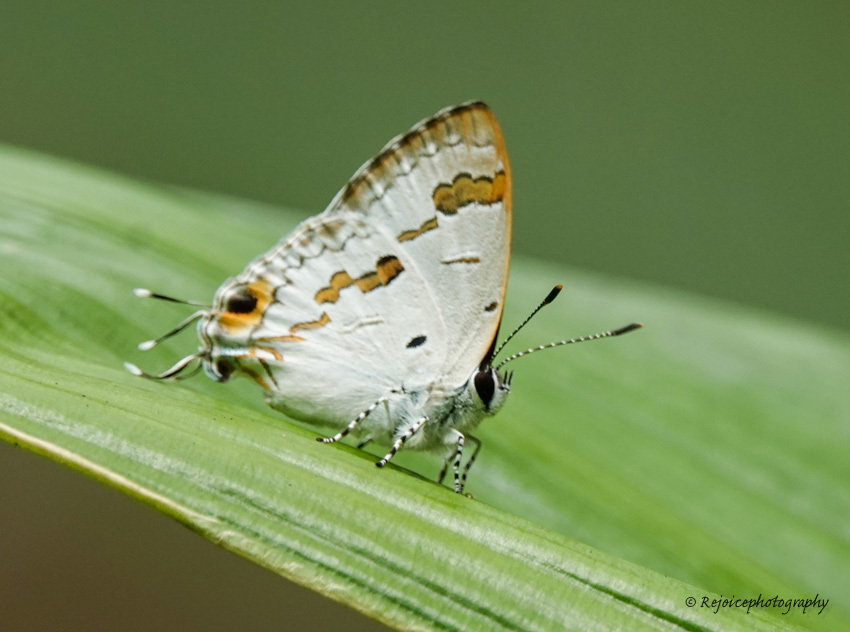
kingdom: Animalia
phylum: Arthropoda
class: Insecta
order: Lepidoptera
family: Lycaenidae
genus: Chliaria
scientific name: Chliaria othona
